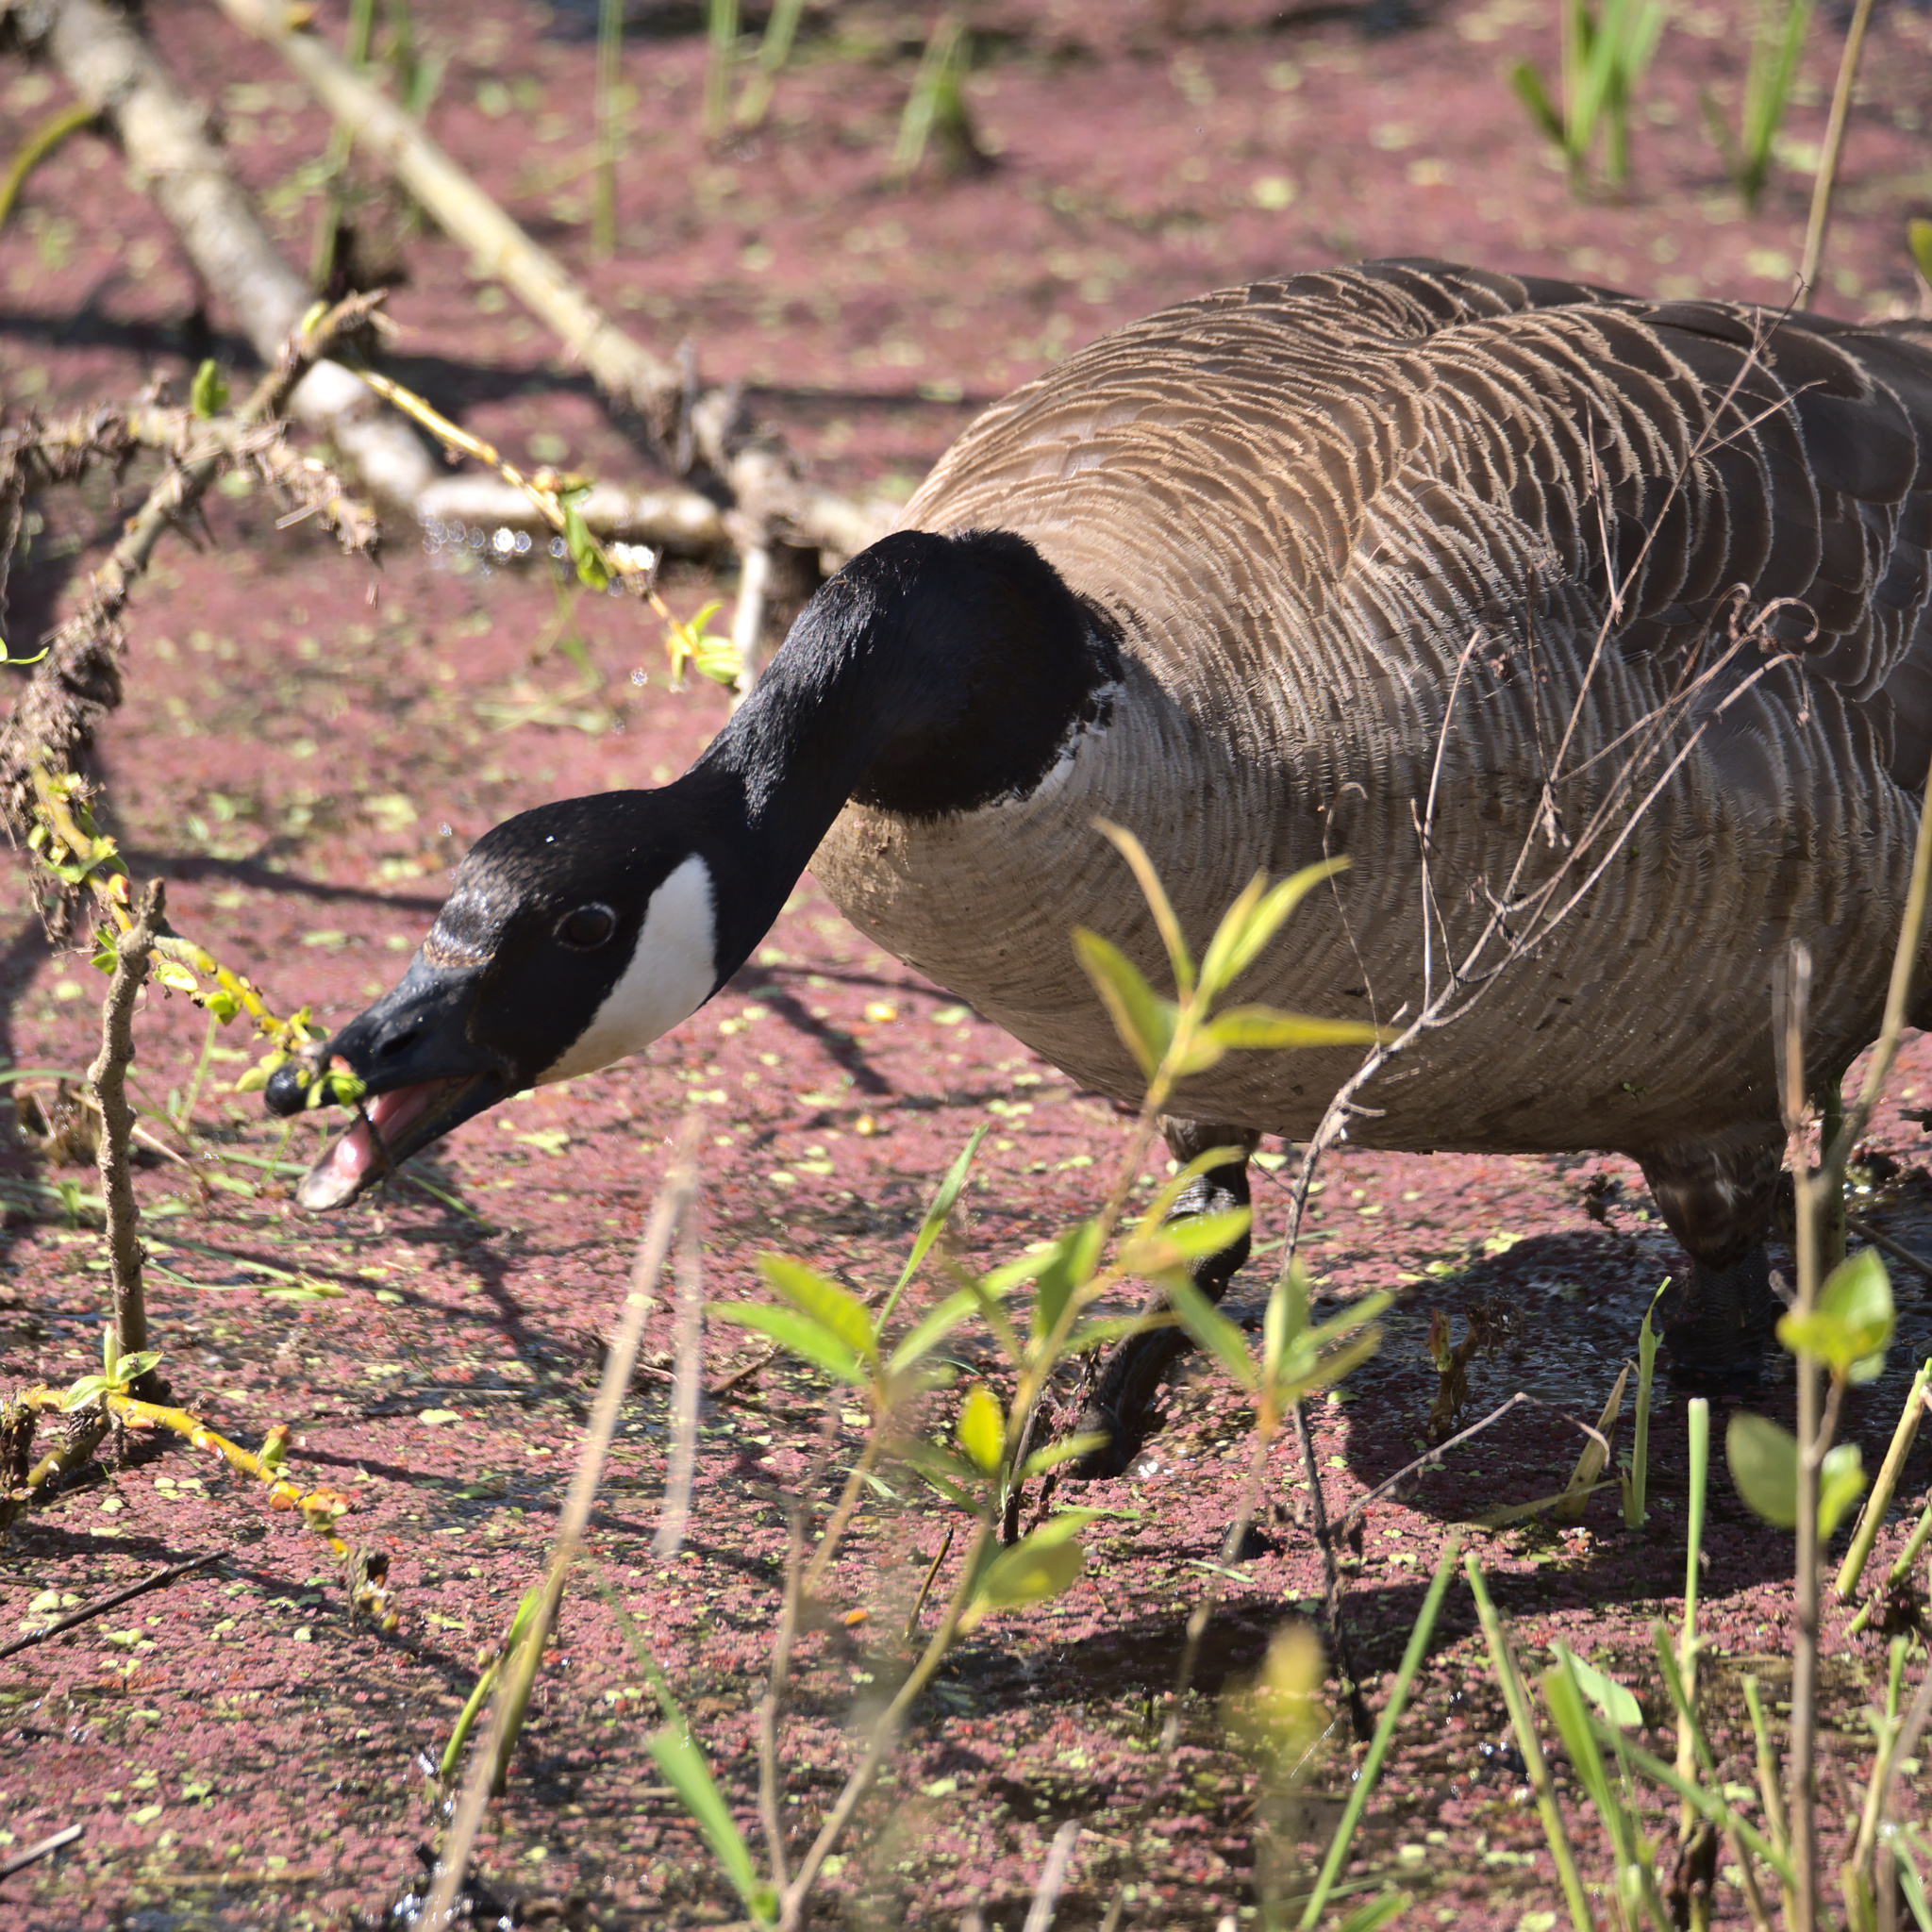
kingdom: Animalia
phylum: Chordata
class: Aves
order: Anseriformes
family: Anatidae
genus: Branta
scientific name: Branta canadensis
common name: Canada goose
